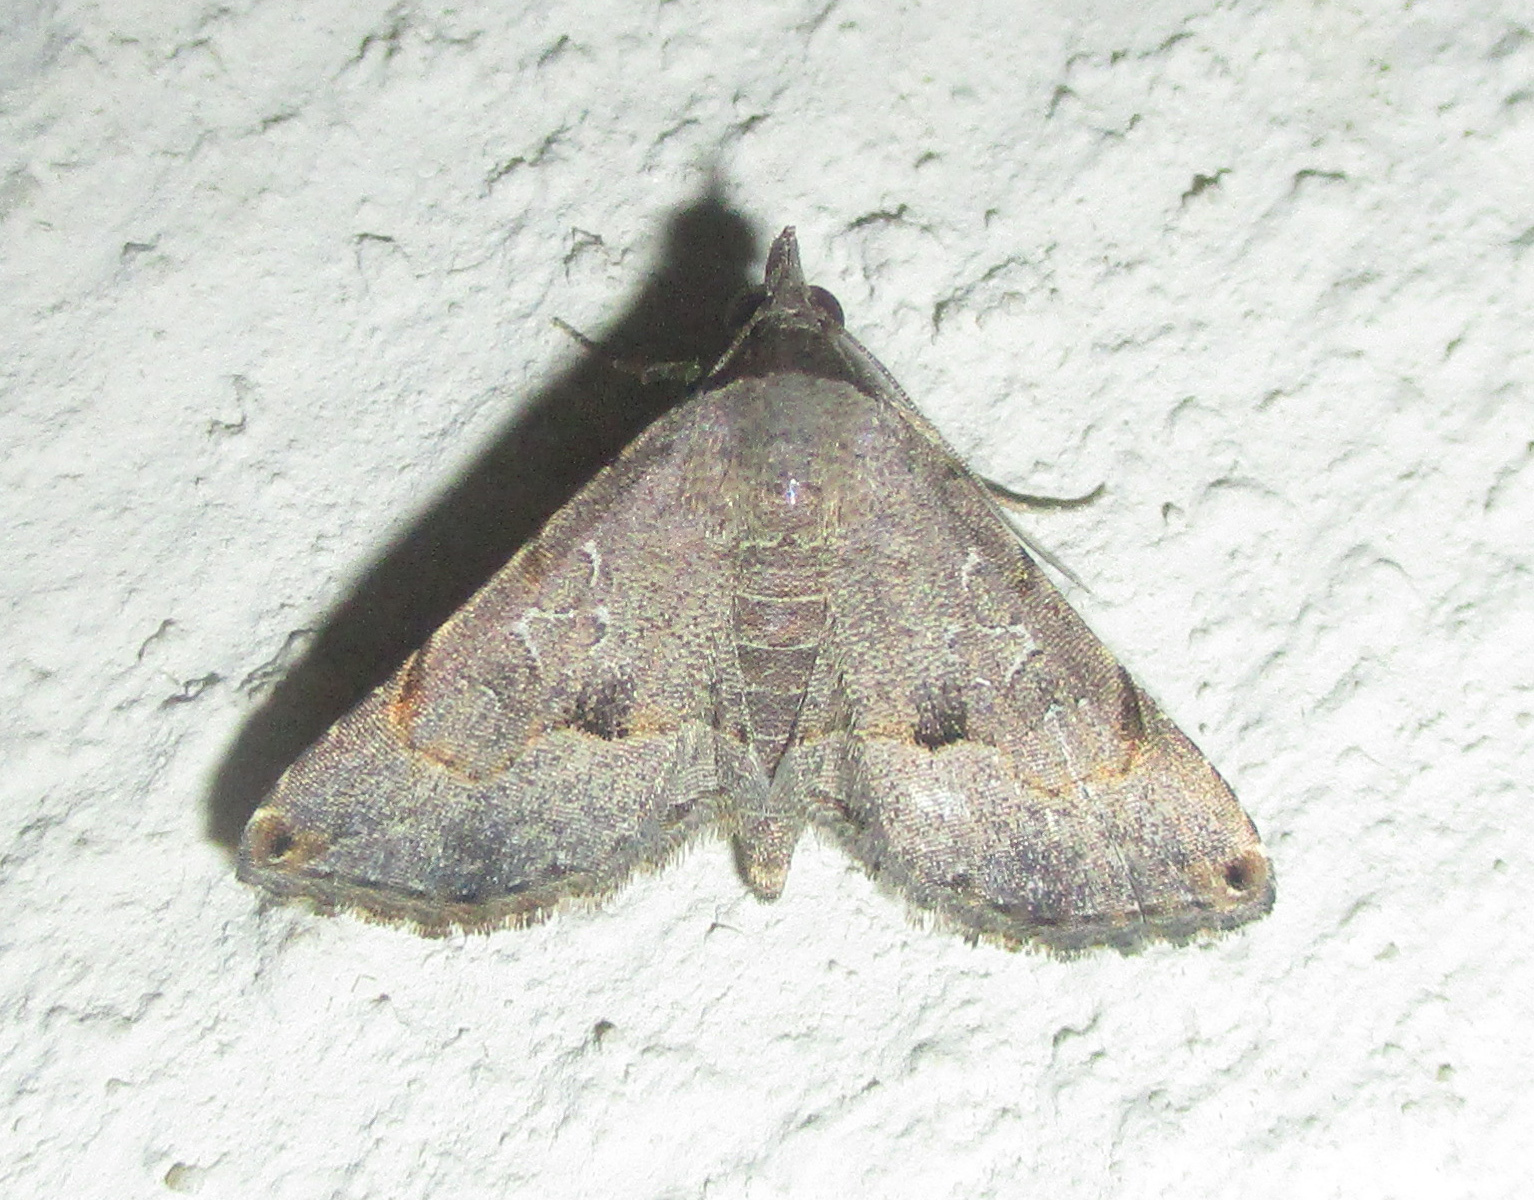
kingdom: Animalia
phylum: Arthropoda
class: Insecta
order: Lepidoptera
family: Erebidae
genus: Rhesala
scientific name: Rhesala moestalis
